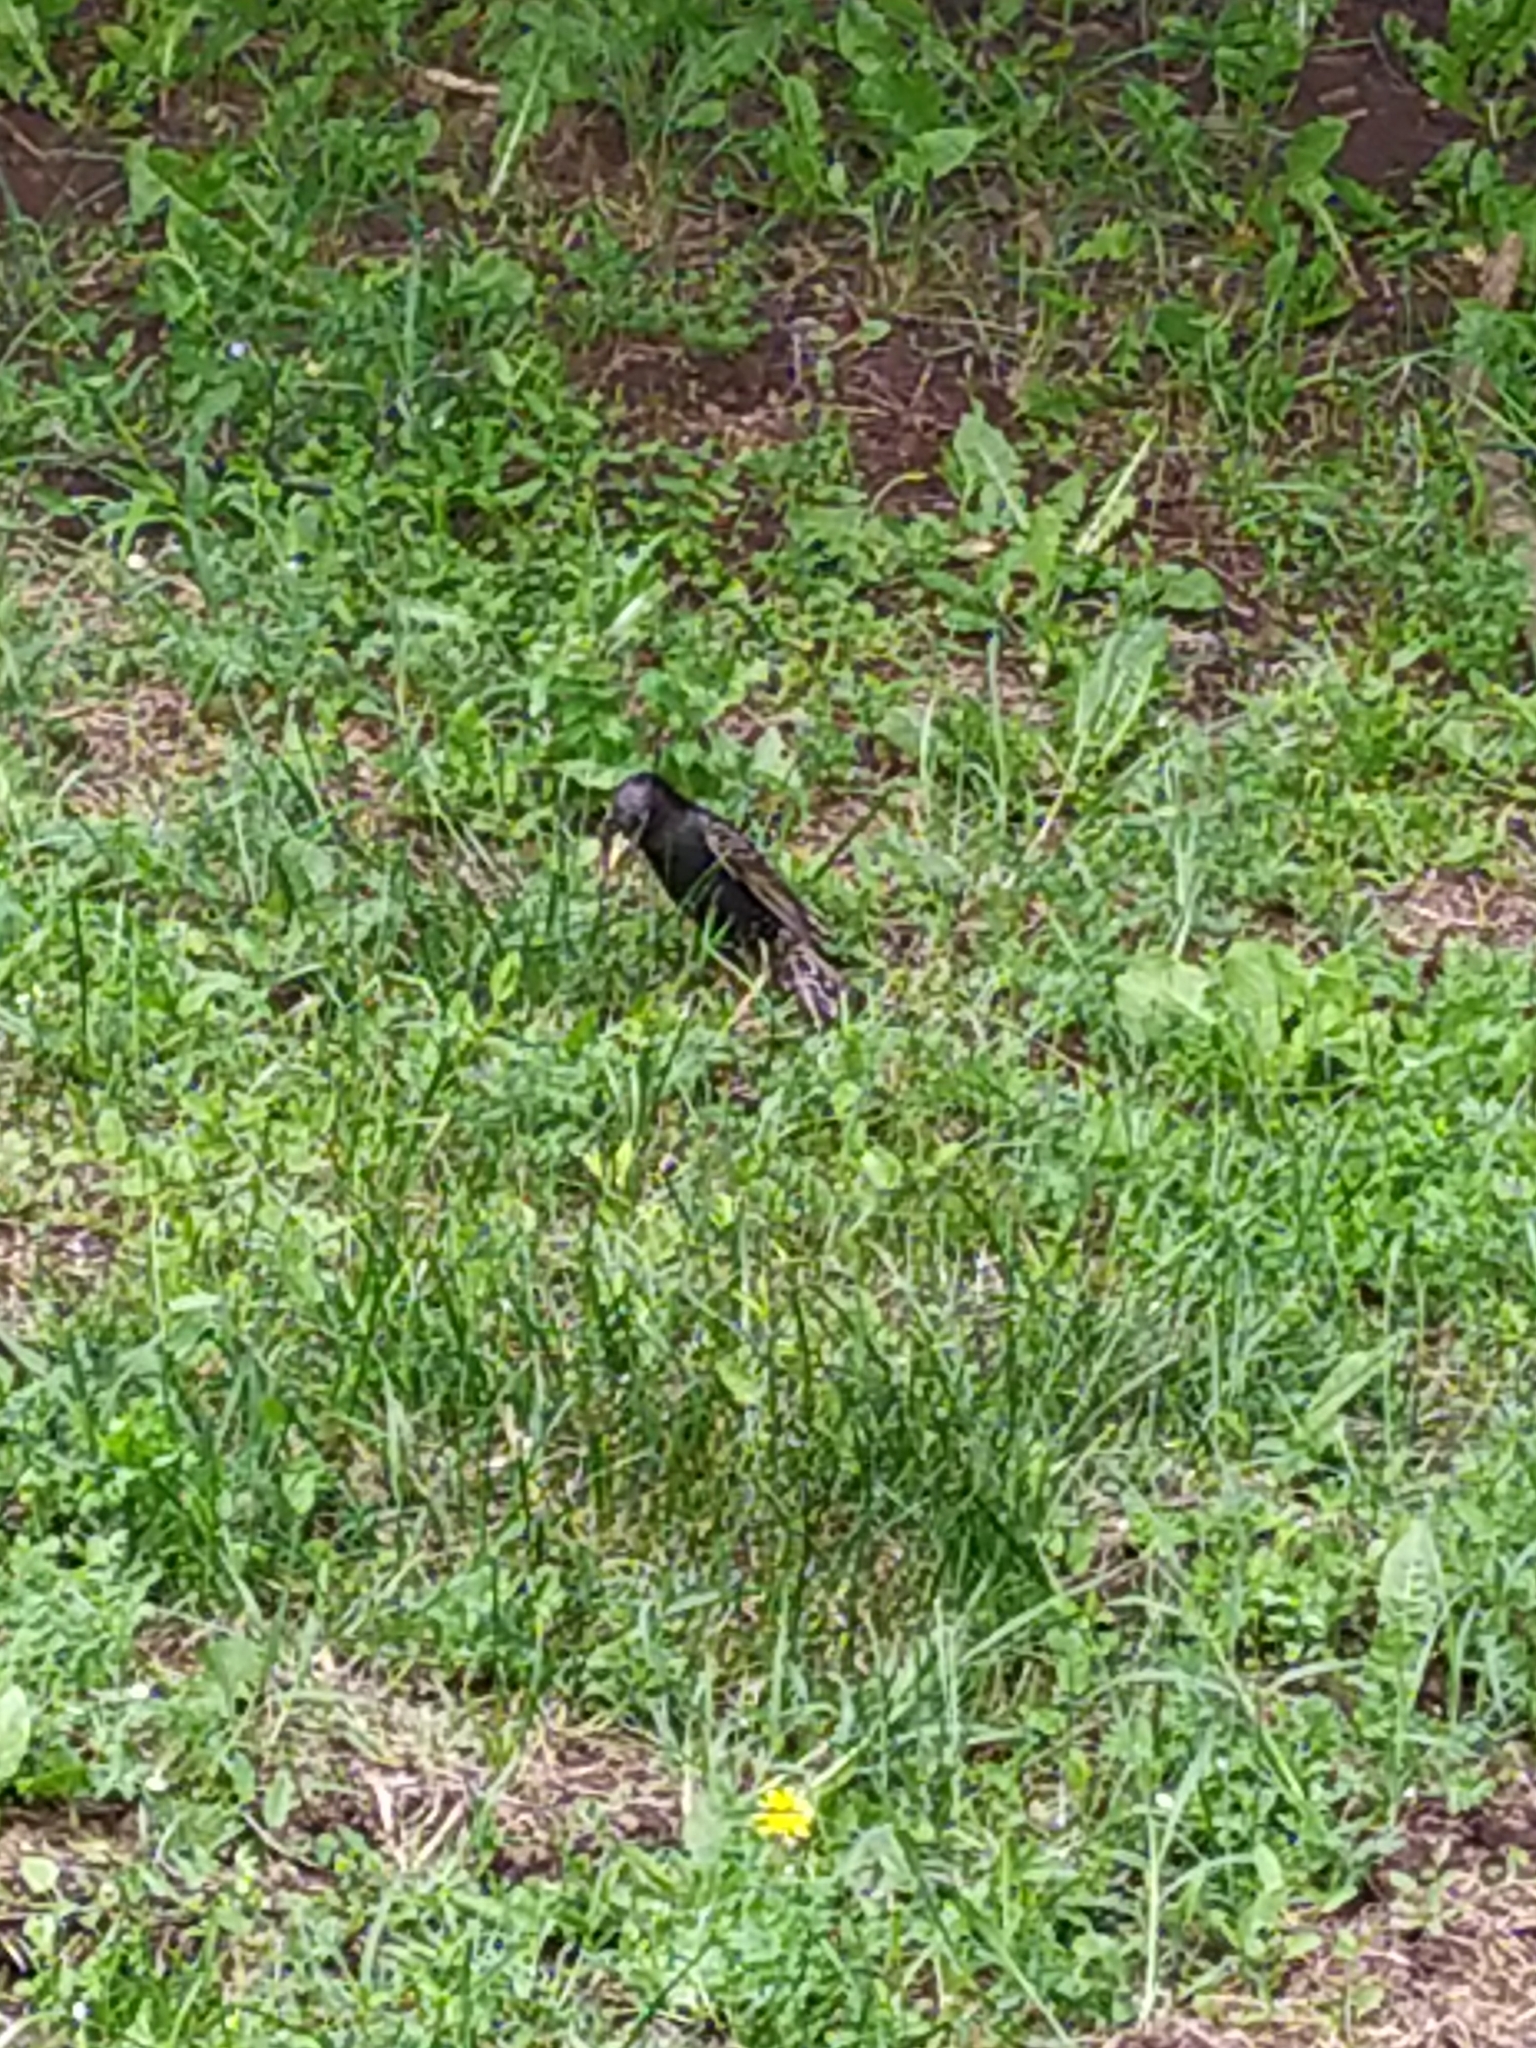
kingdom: Animalia
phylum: Chordata
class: Aves
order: Passeriformes
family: Sturnidae
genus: Sturnus
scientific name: Sturnus vulgaris
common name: Common starling
